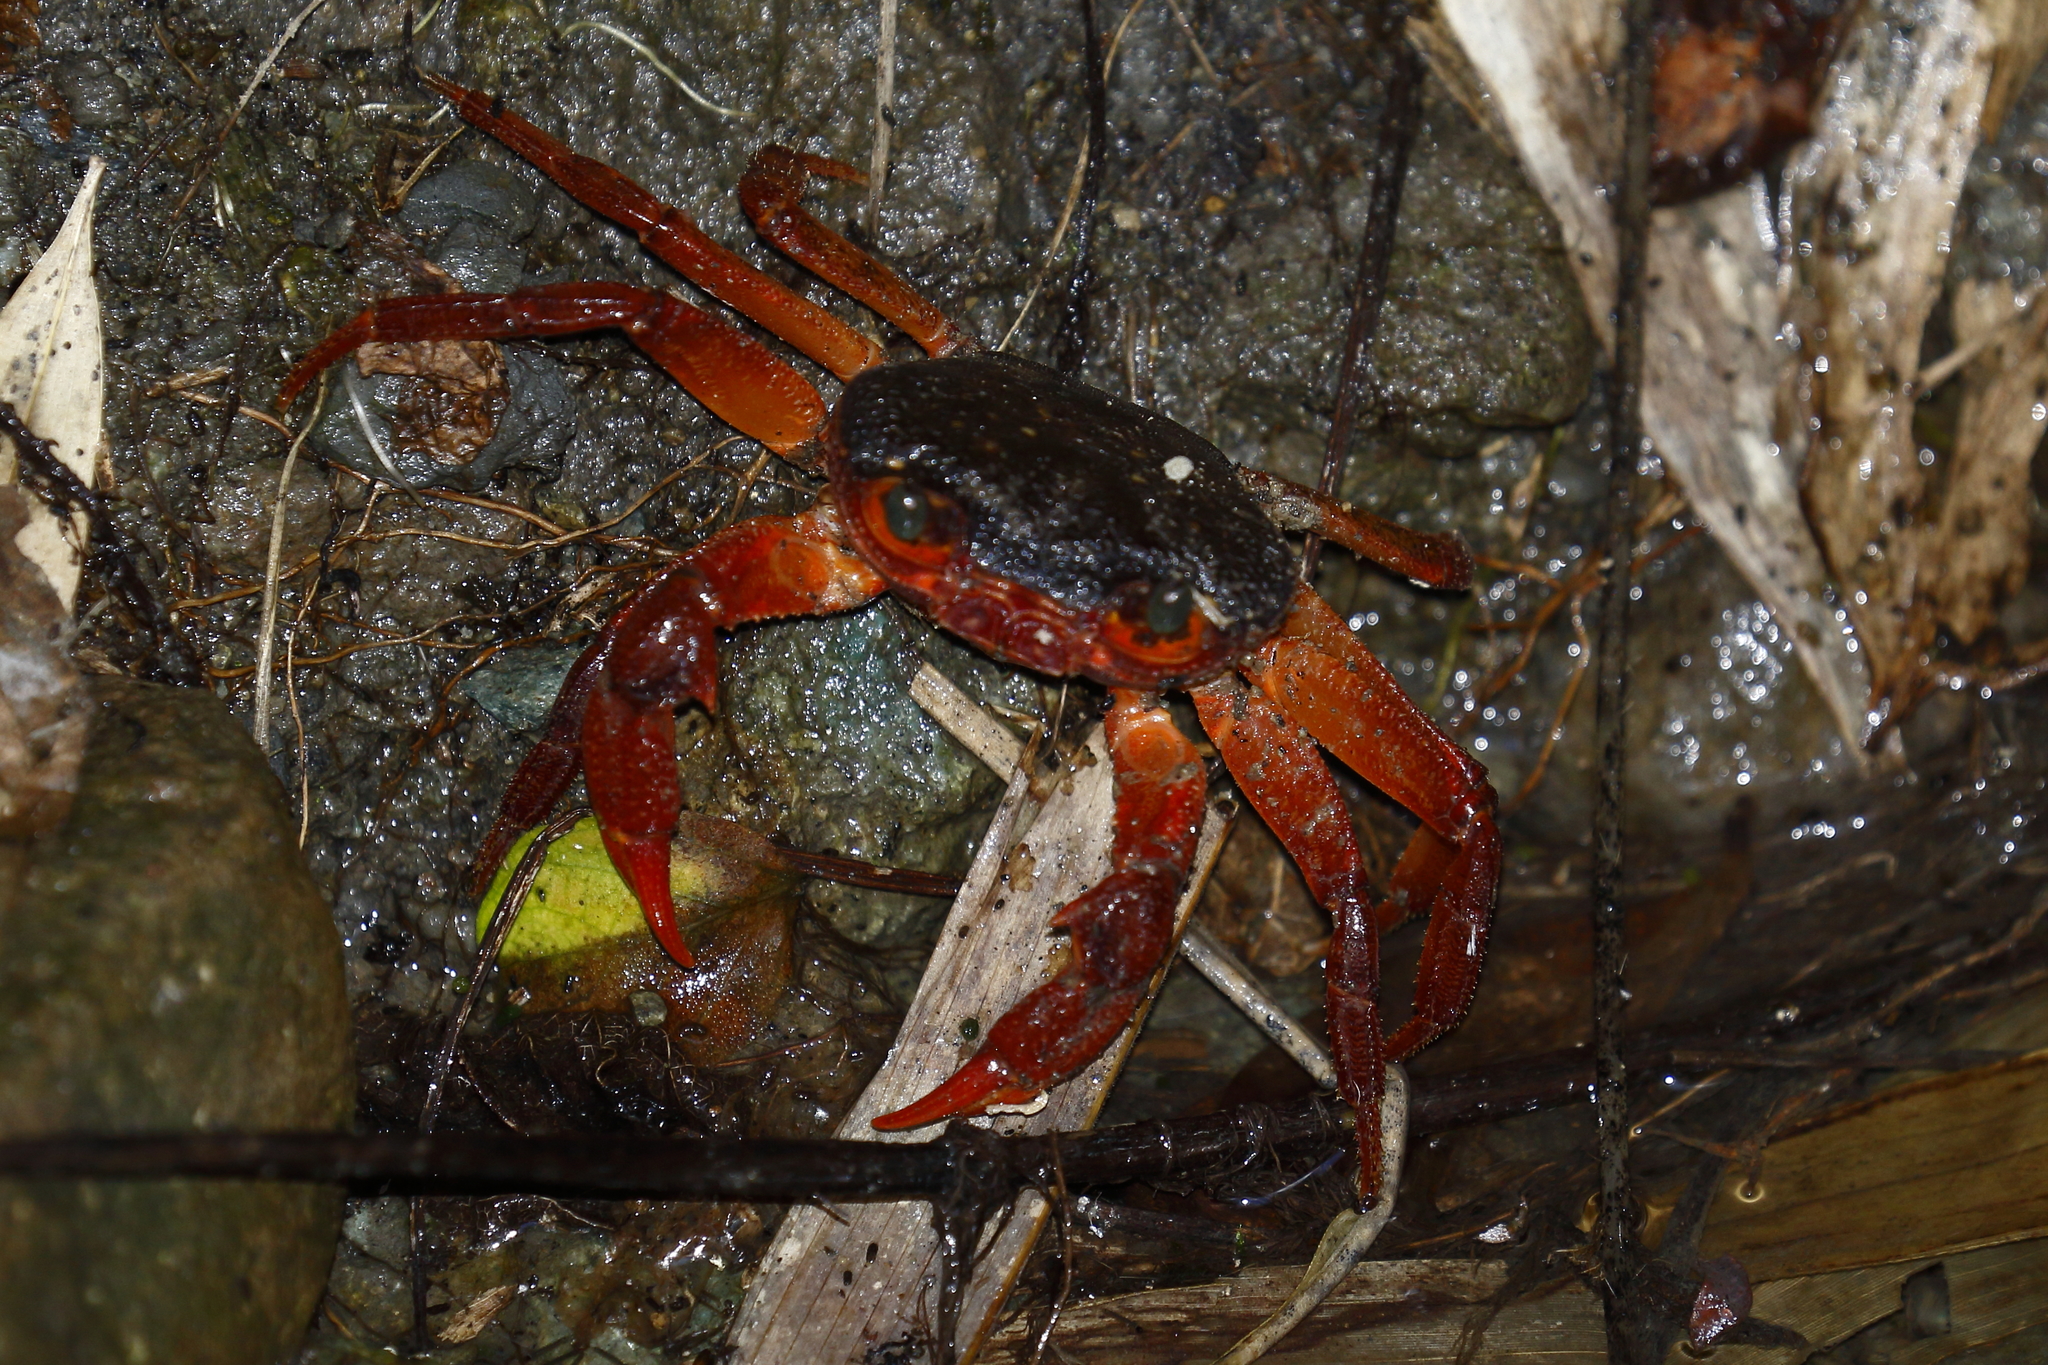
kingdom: Animalia
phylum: Arthropoda
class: Malacostraca
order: Decapoda
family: Potamidae
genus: Candidiopotamon
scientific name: Candidiopotamon rathbuni
